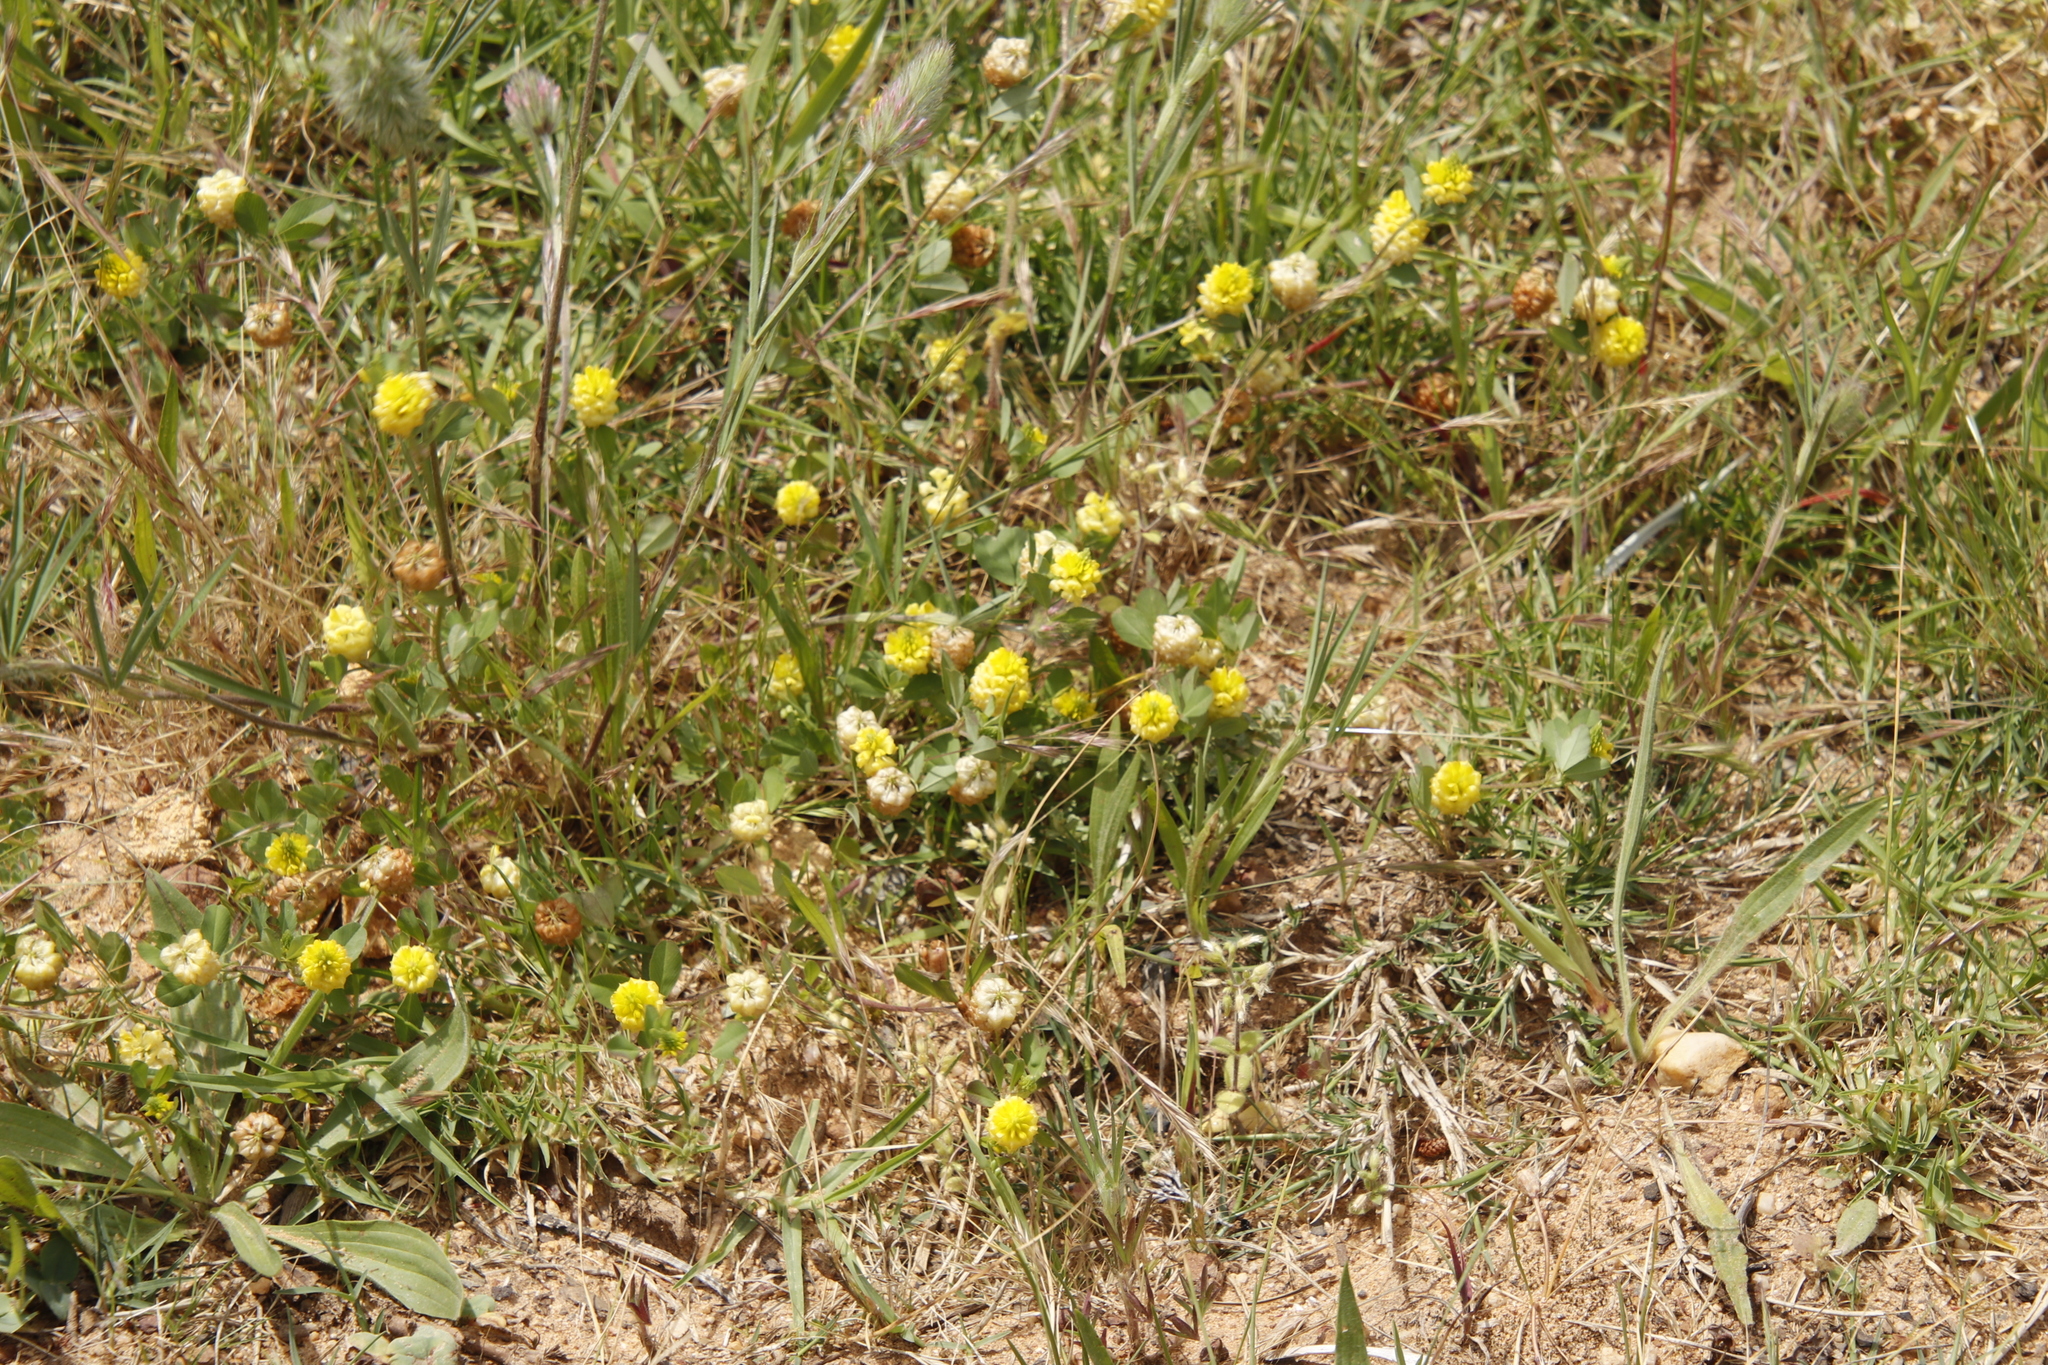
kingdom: Plantae
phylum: Tracheophyta
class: Magnoliopsida
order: Fabales
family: Fabaceae
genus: Trifolium
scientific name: Trifolium campestre
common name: Field clover
